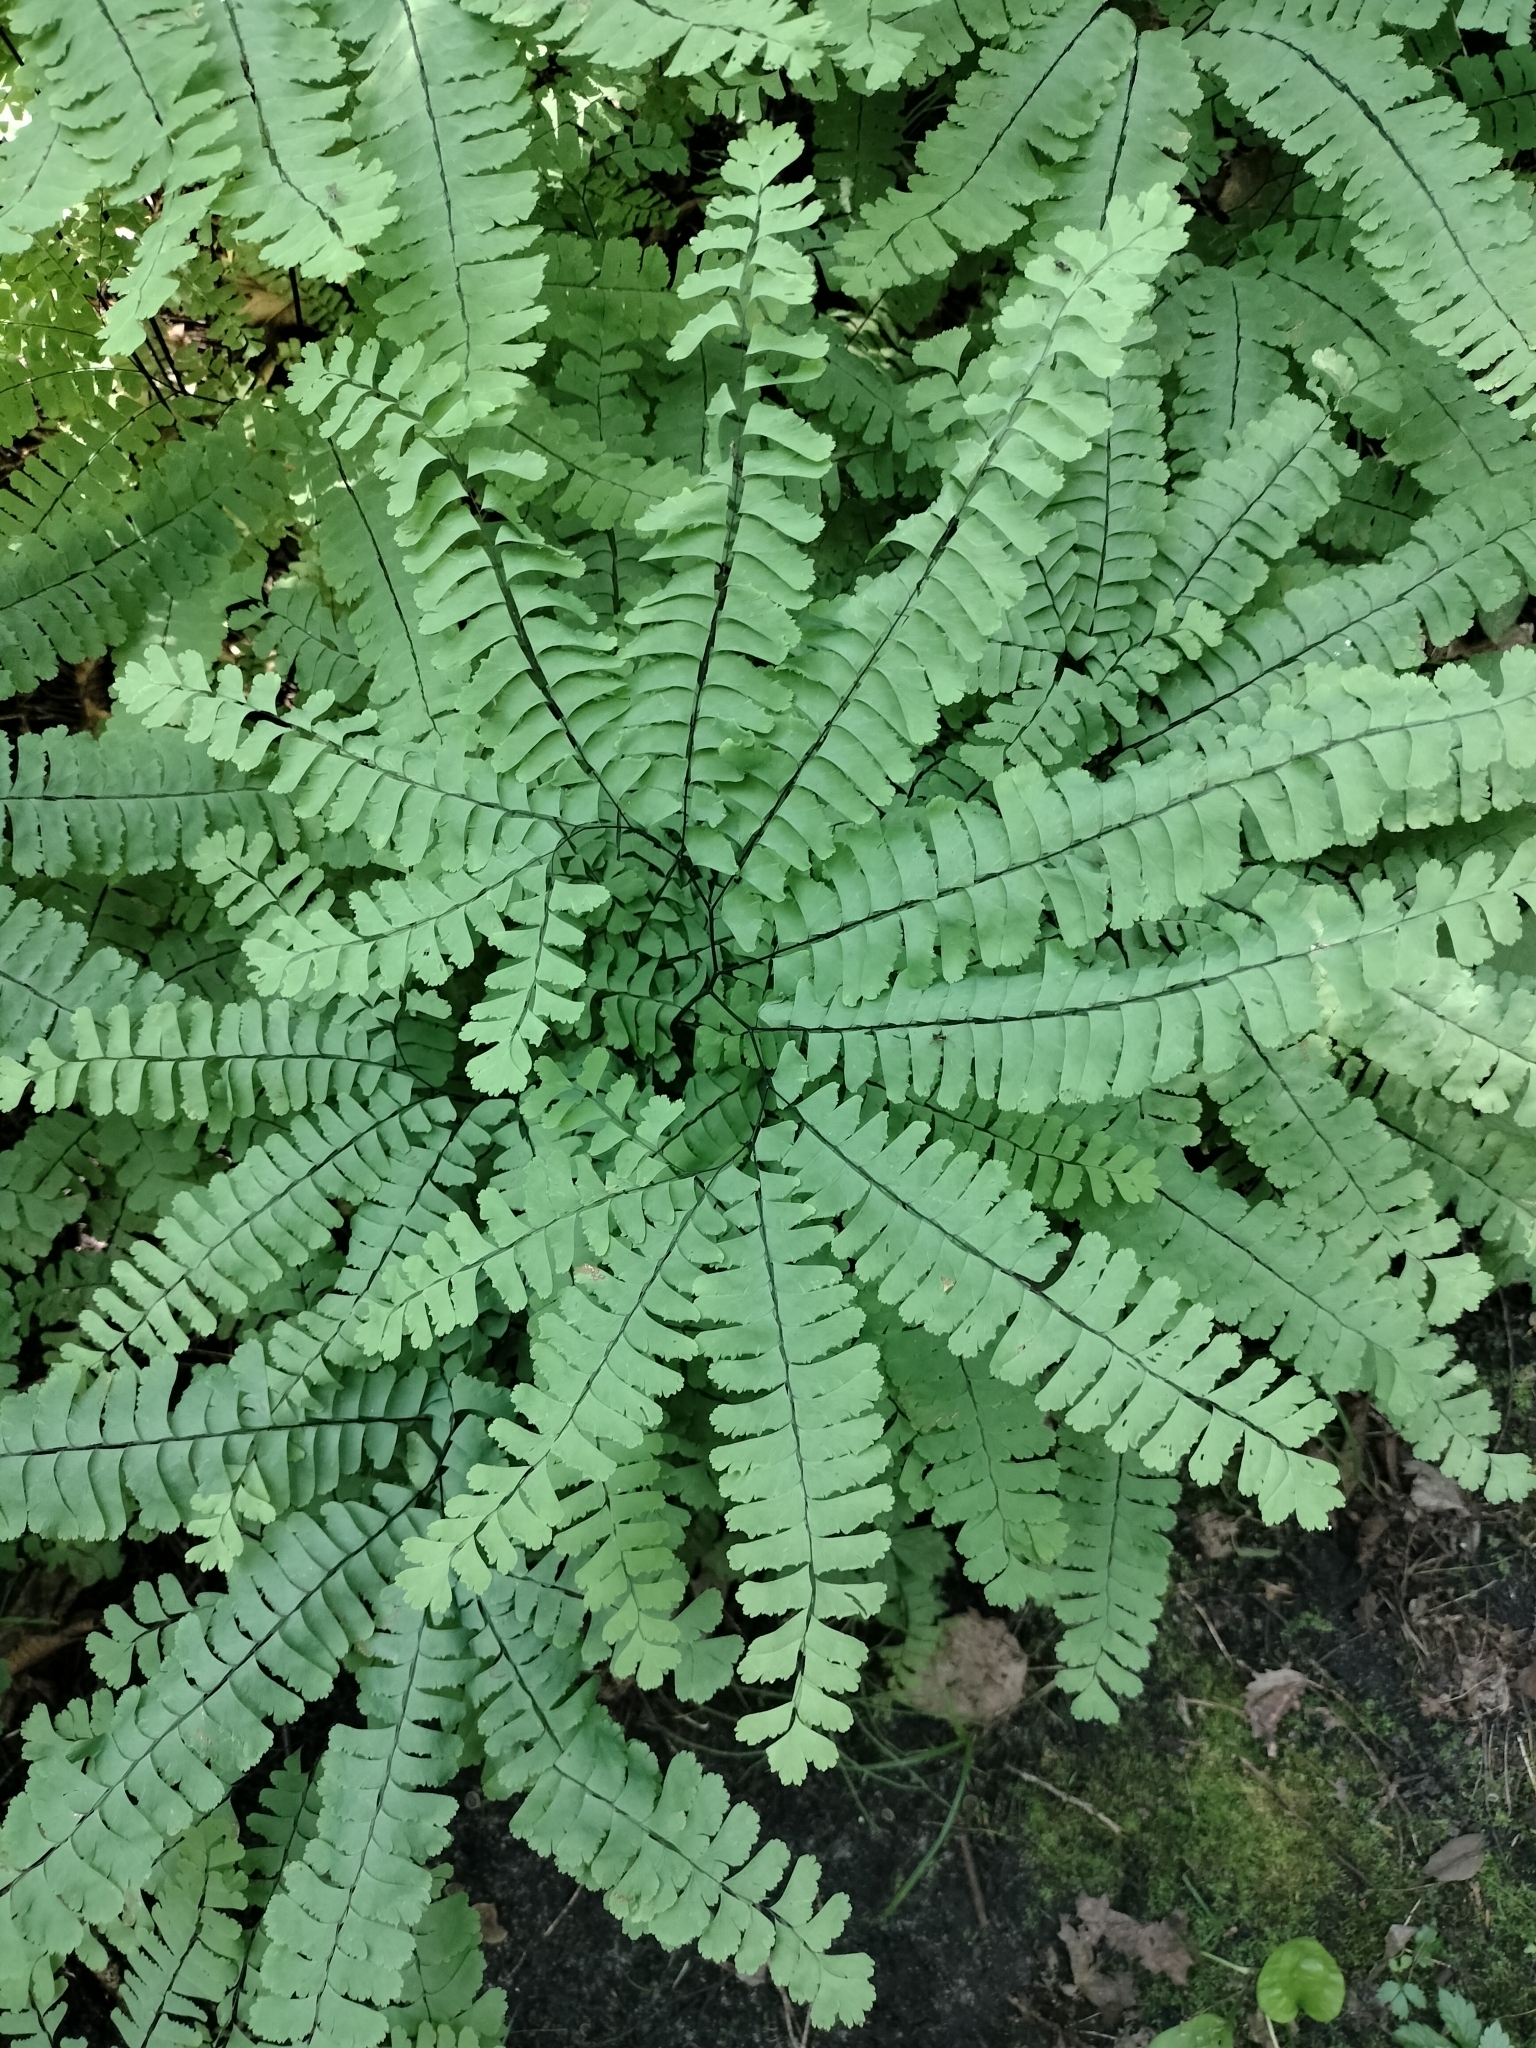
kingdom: Plantae
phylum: Tracheophyta
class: Polypodiopsida
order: Polypodiales
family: Pteridaceae
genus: Adiantum
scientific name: Adiantum pedatum
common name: Five-finger fern
